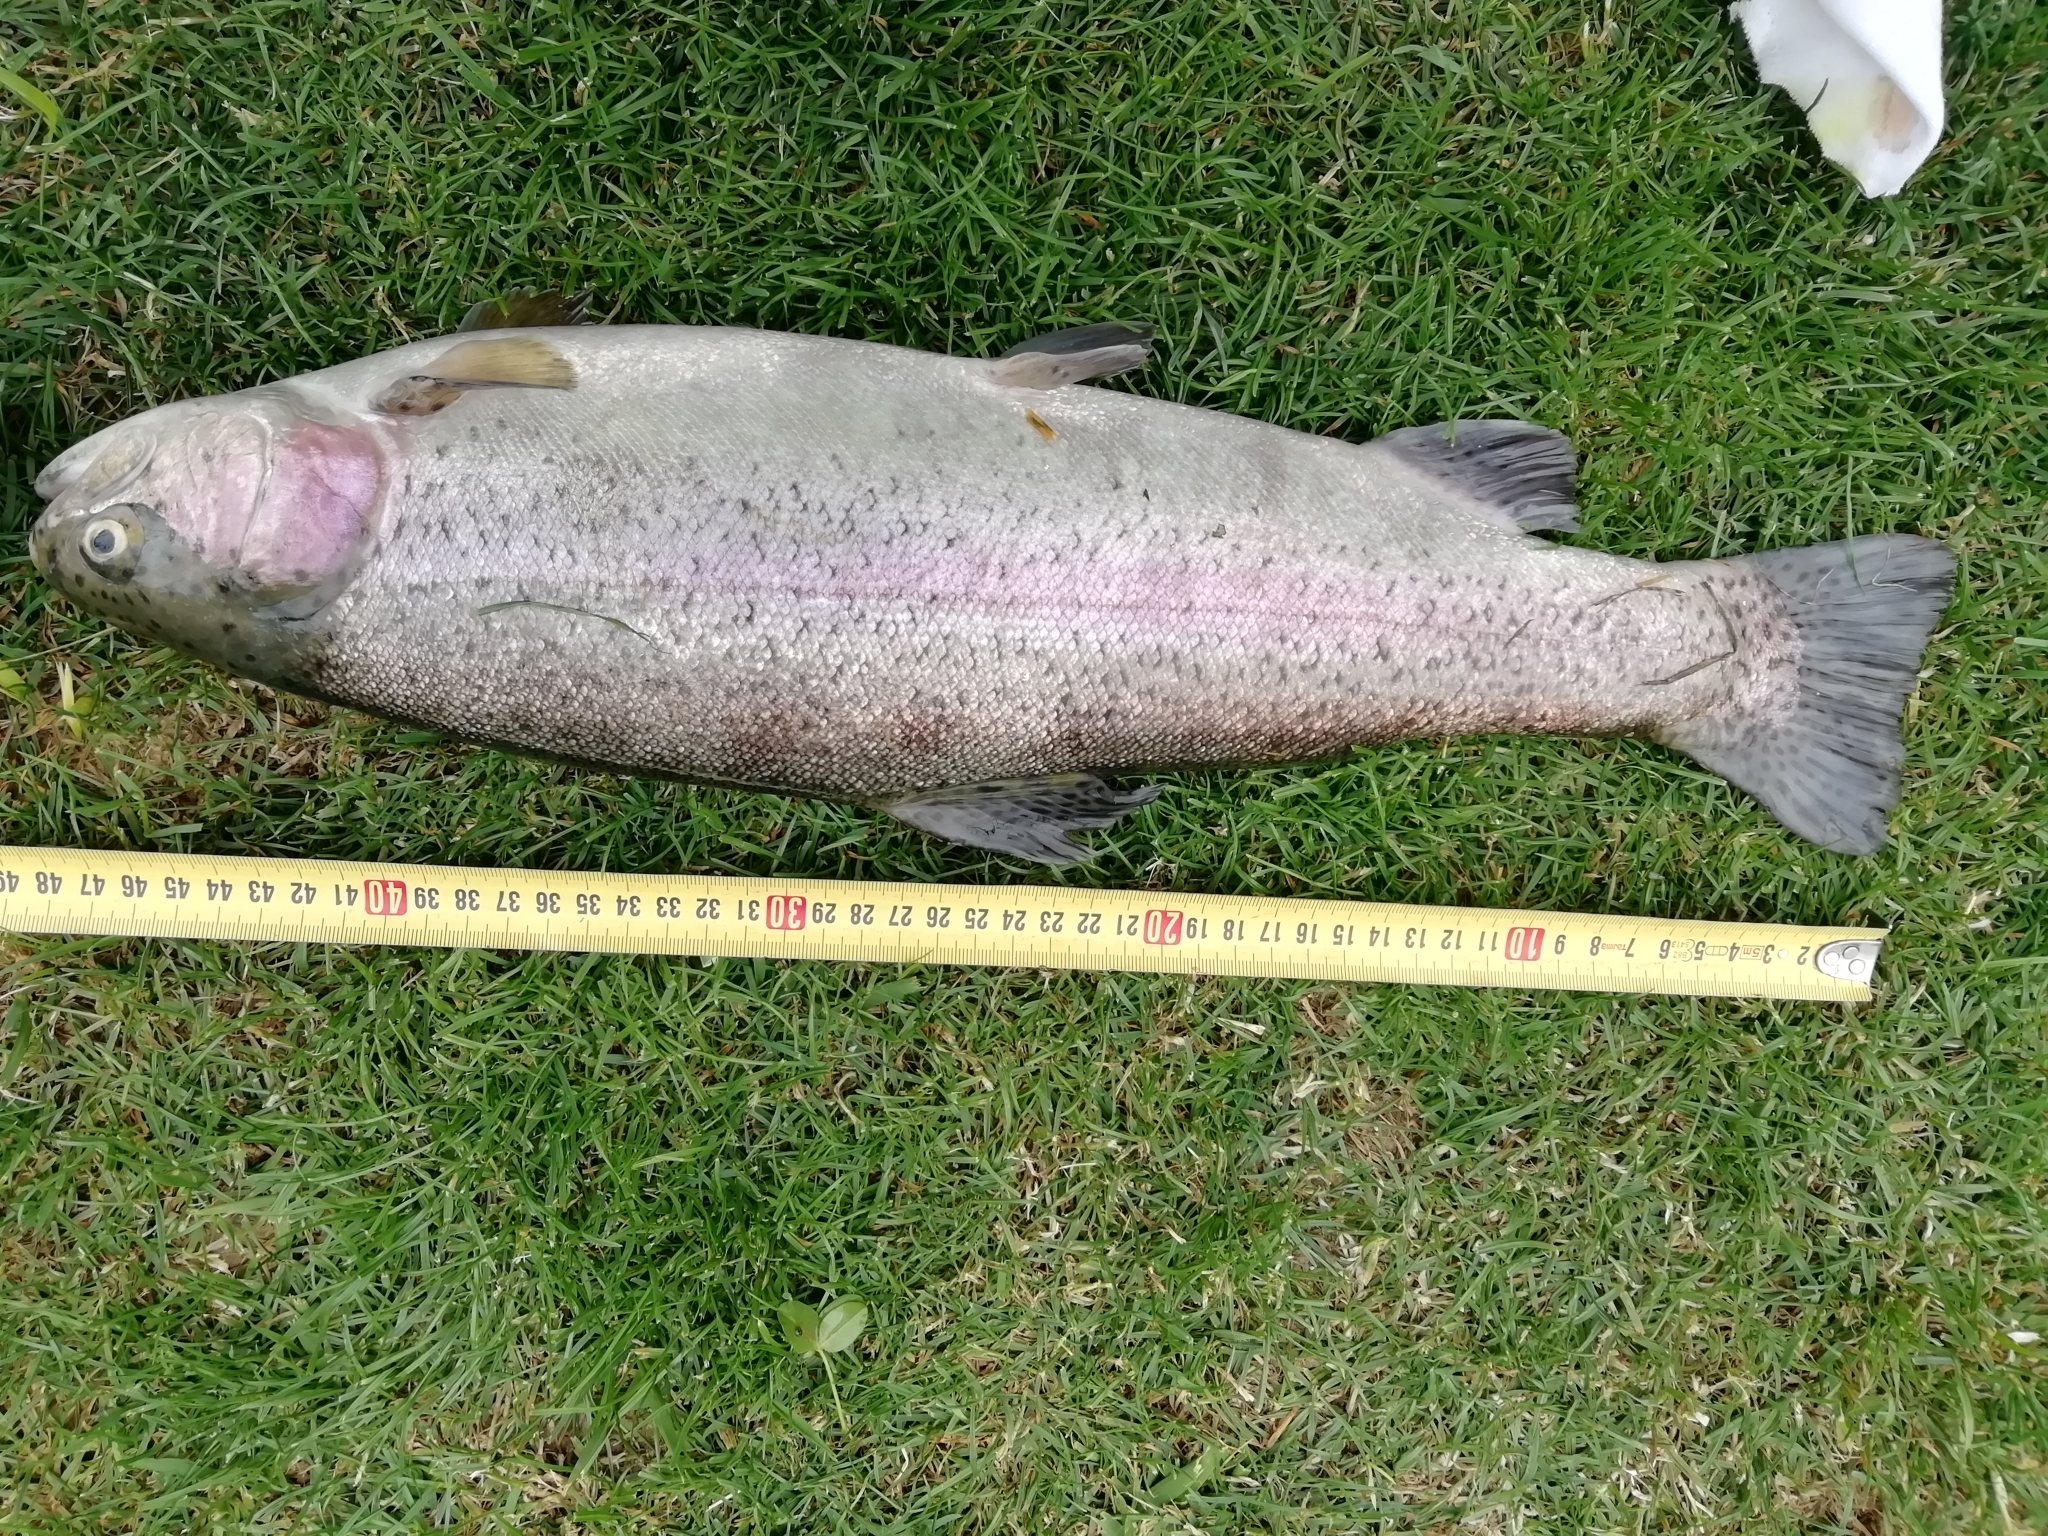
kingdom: Animalia
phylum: Chordata
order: Salmoniformes
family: Salmonidae
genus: Oncorhynchus
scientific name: Oncorhynchus mykiss
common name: Rainbow trout
